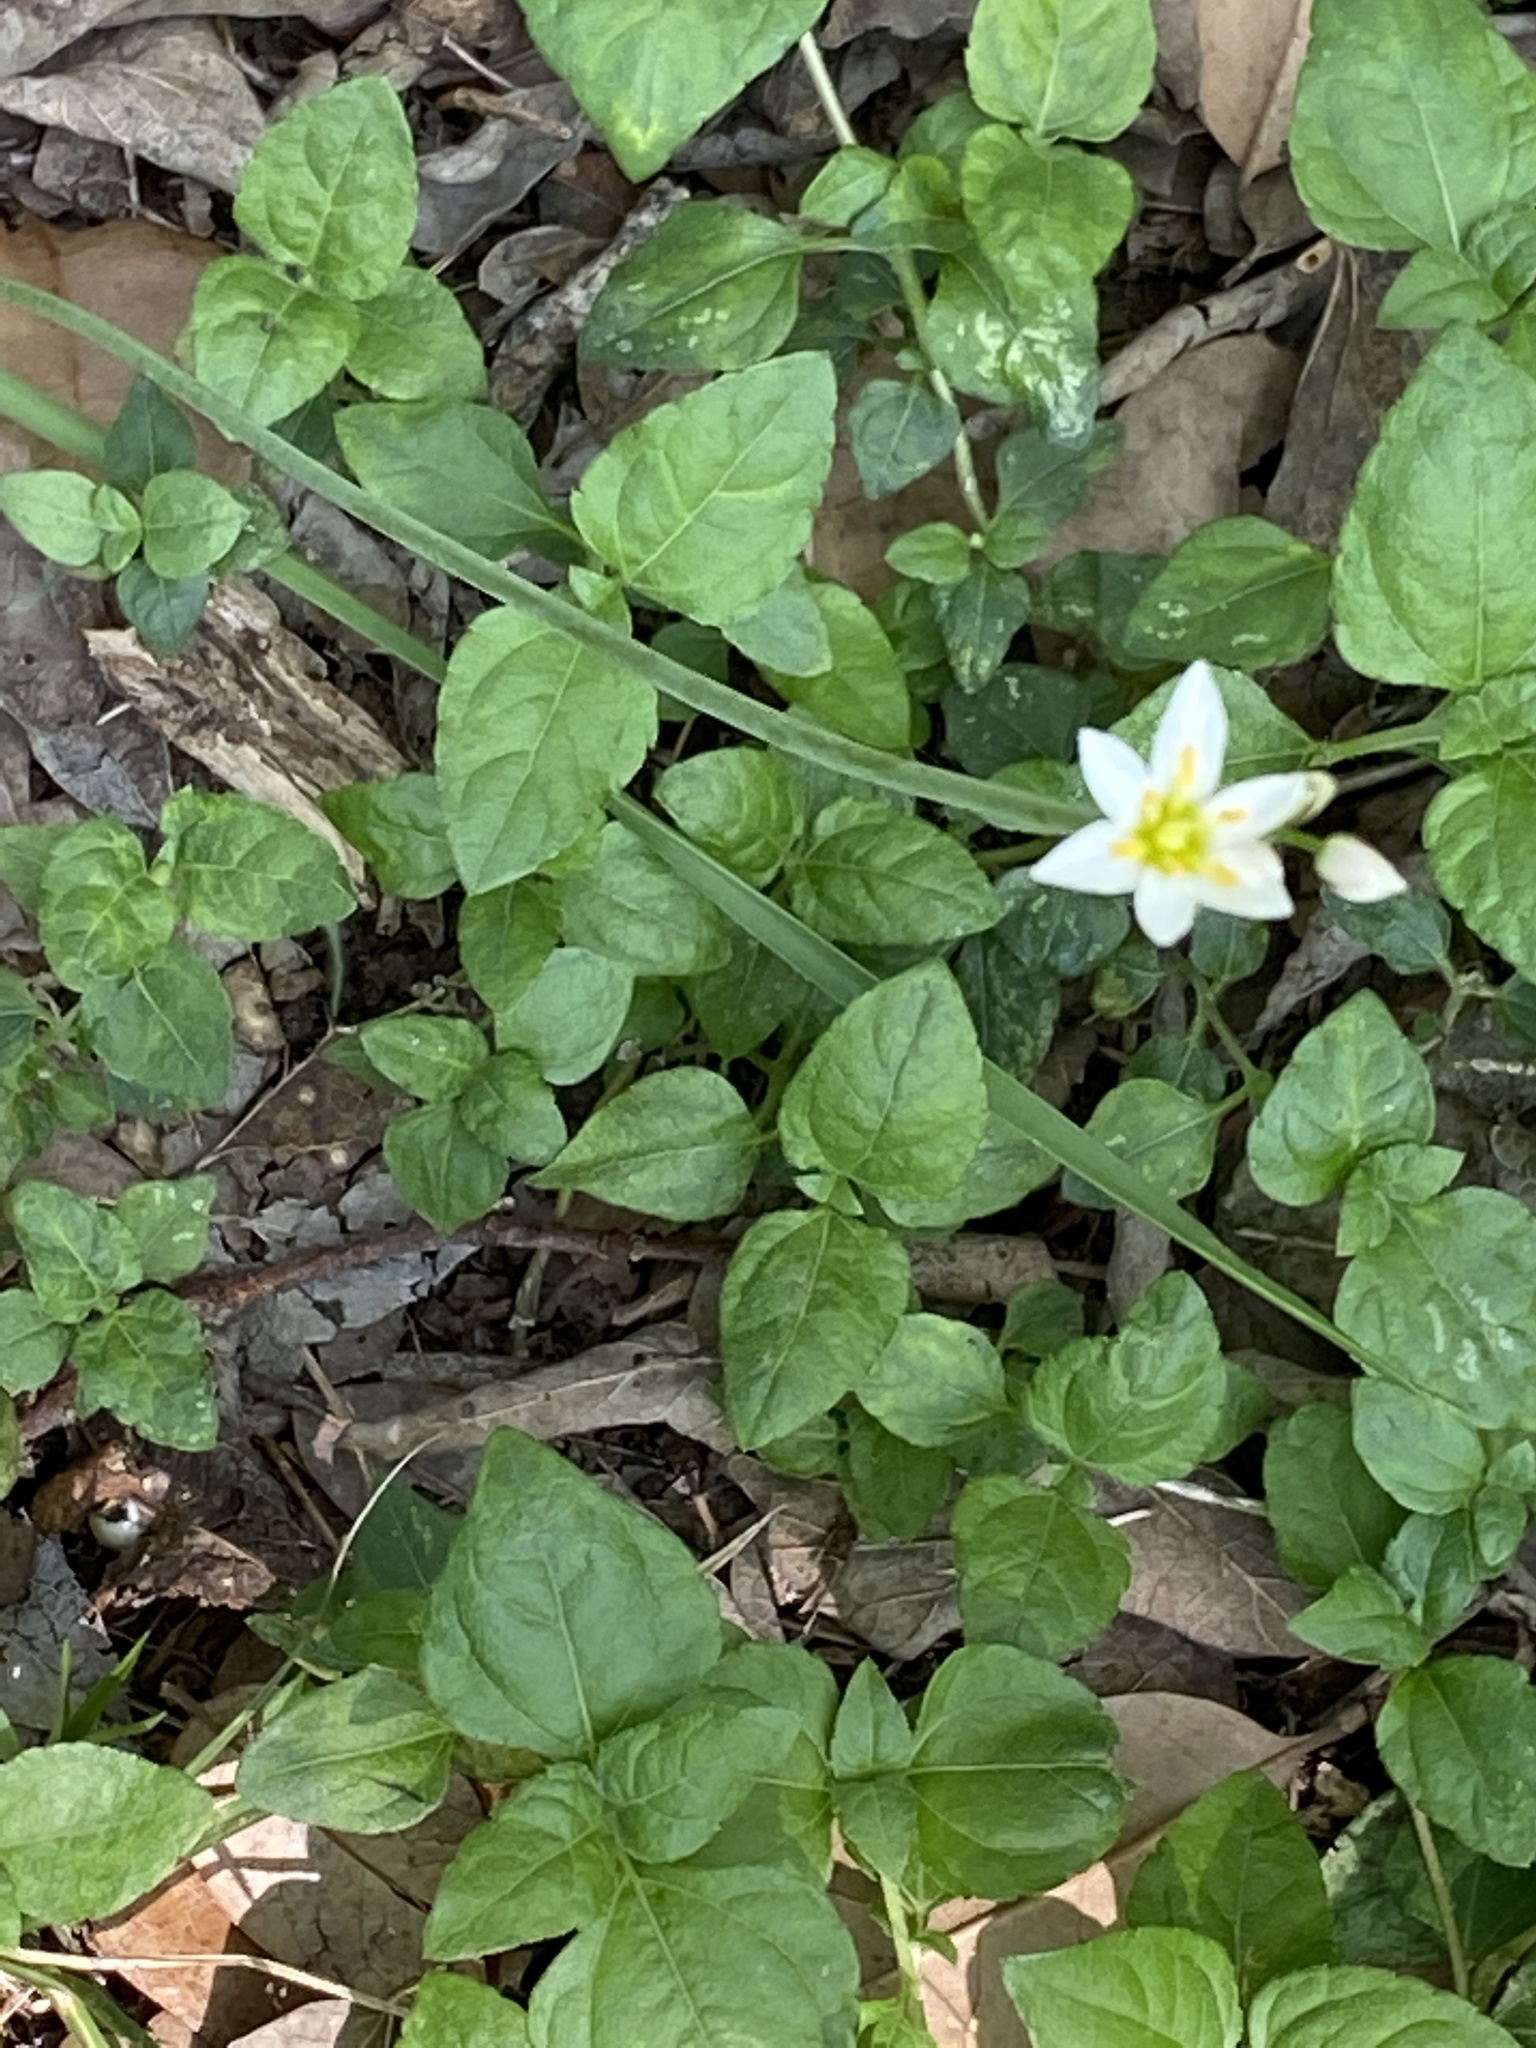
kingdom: Plantae
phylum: Tracheophyta
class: Liliopsida
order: Asparagales
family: Amaryllidaceae
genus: Nothoscordum
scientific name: Nothoscordum bivalve
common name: Crow-poison
